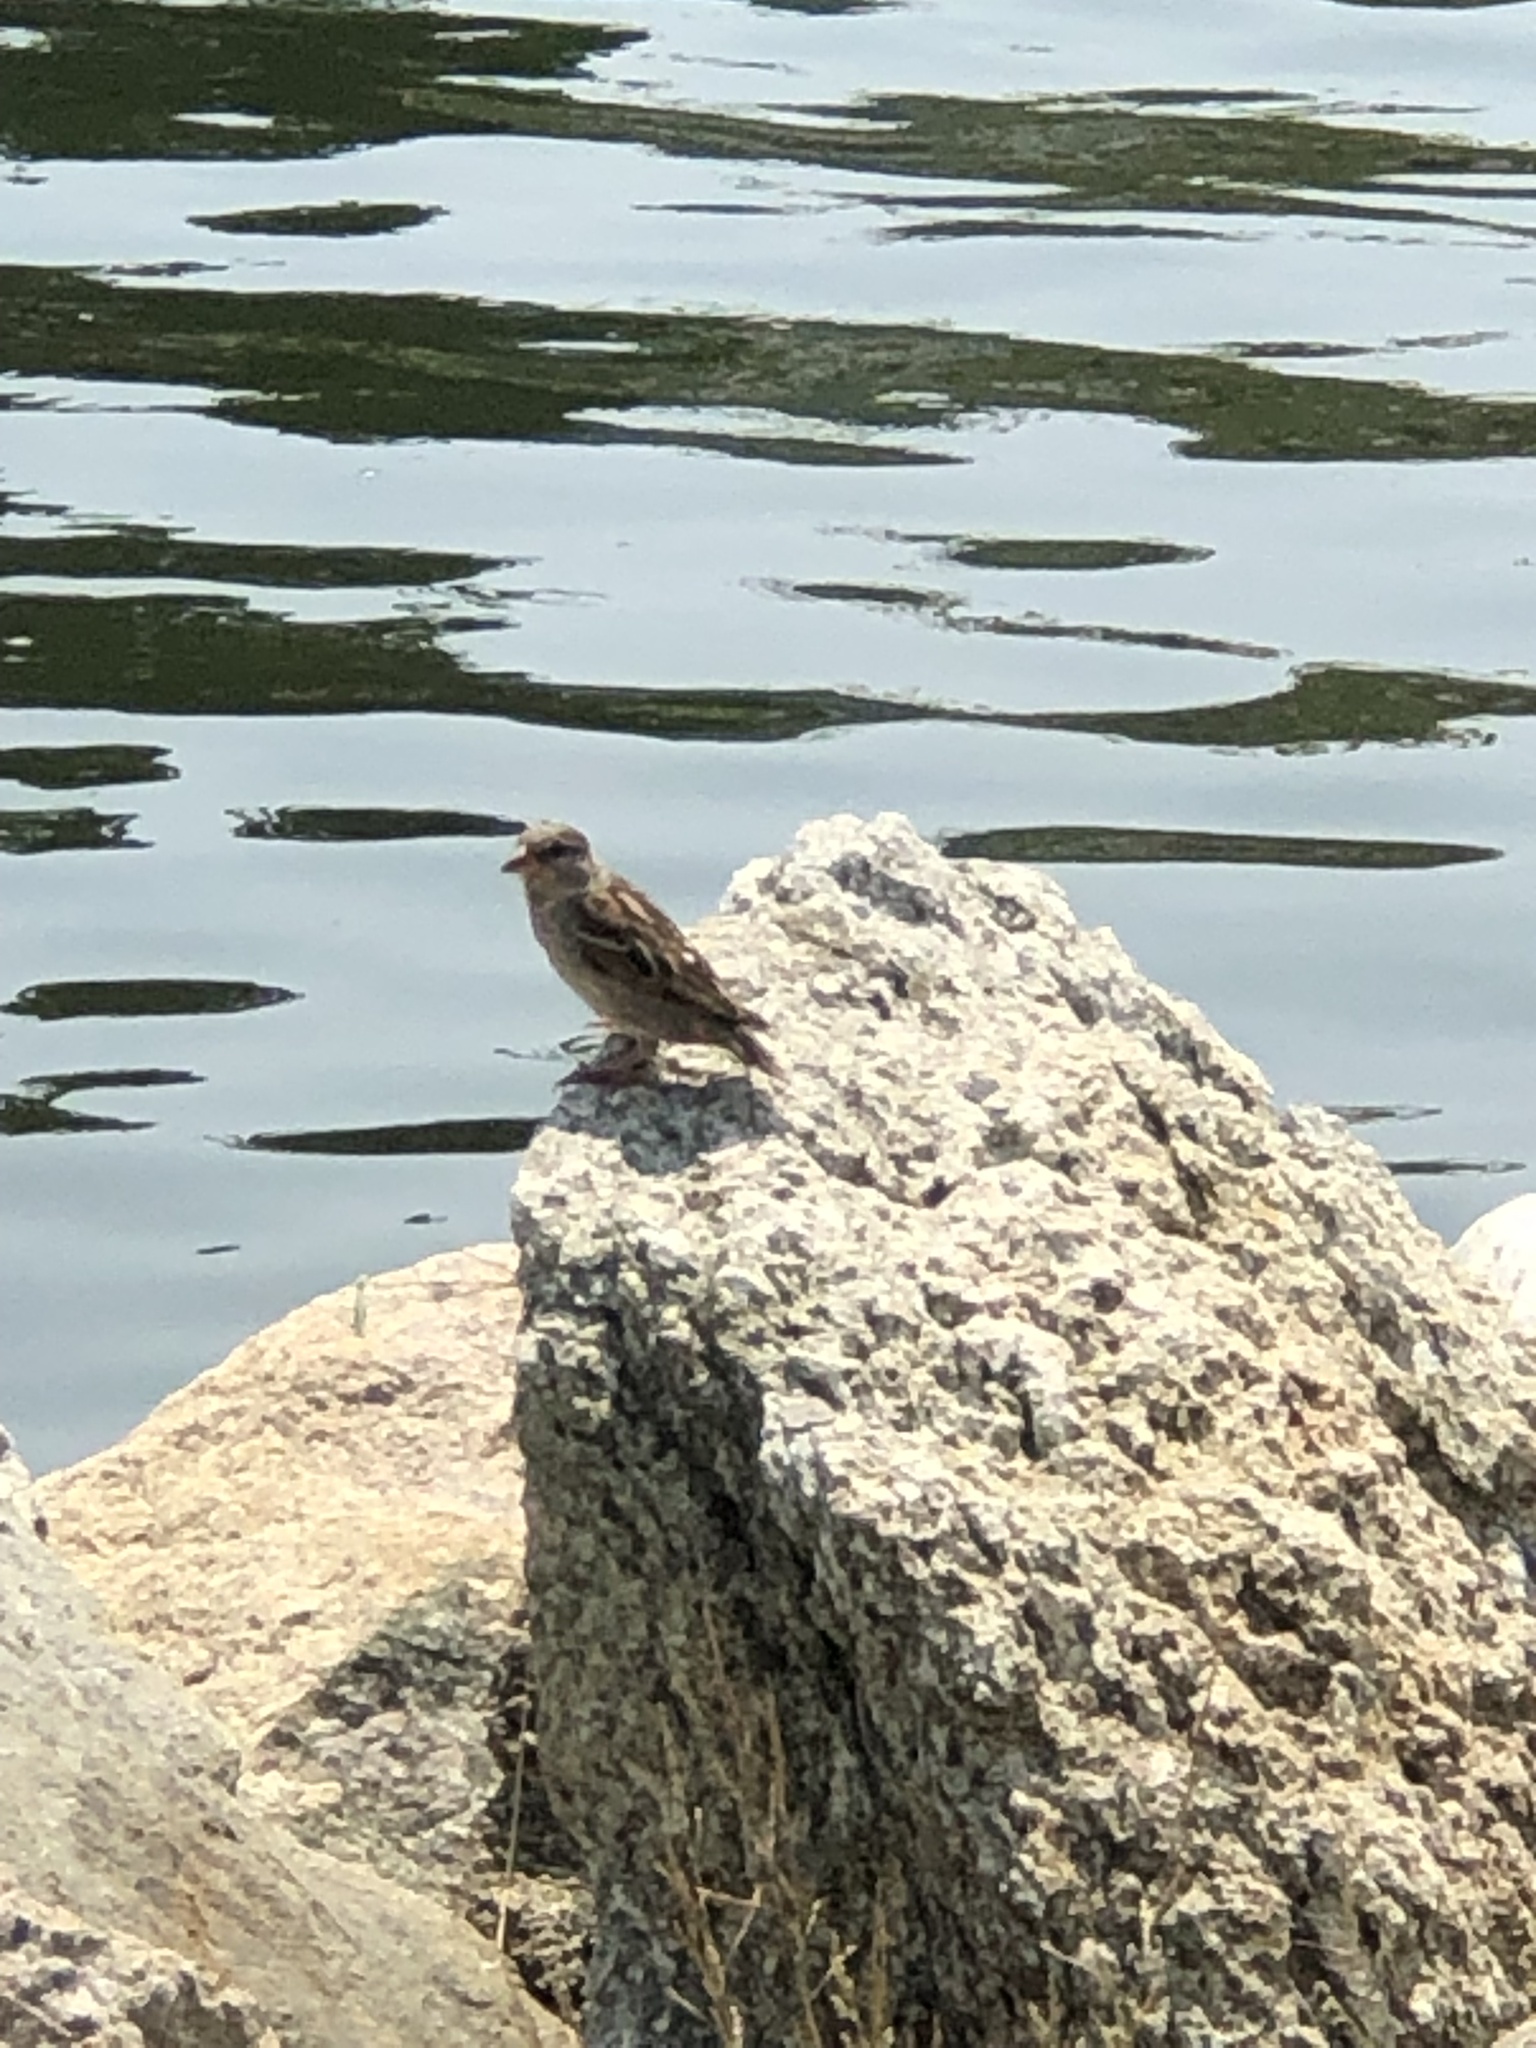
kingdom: Animalia
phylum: Chordata
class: Aves
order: Passeriformes
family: Passeridae
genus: Passer
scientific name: Passer domesticus
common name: House sparrow
